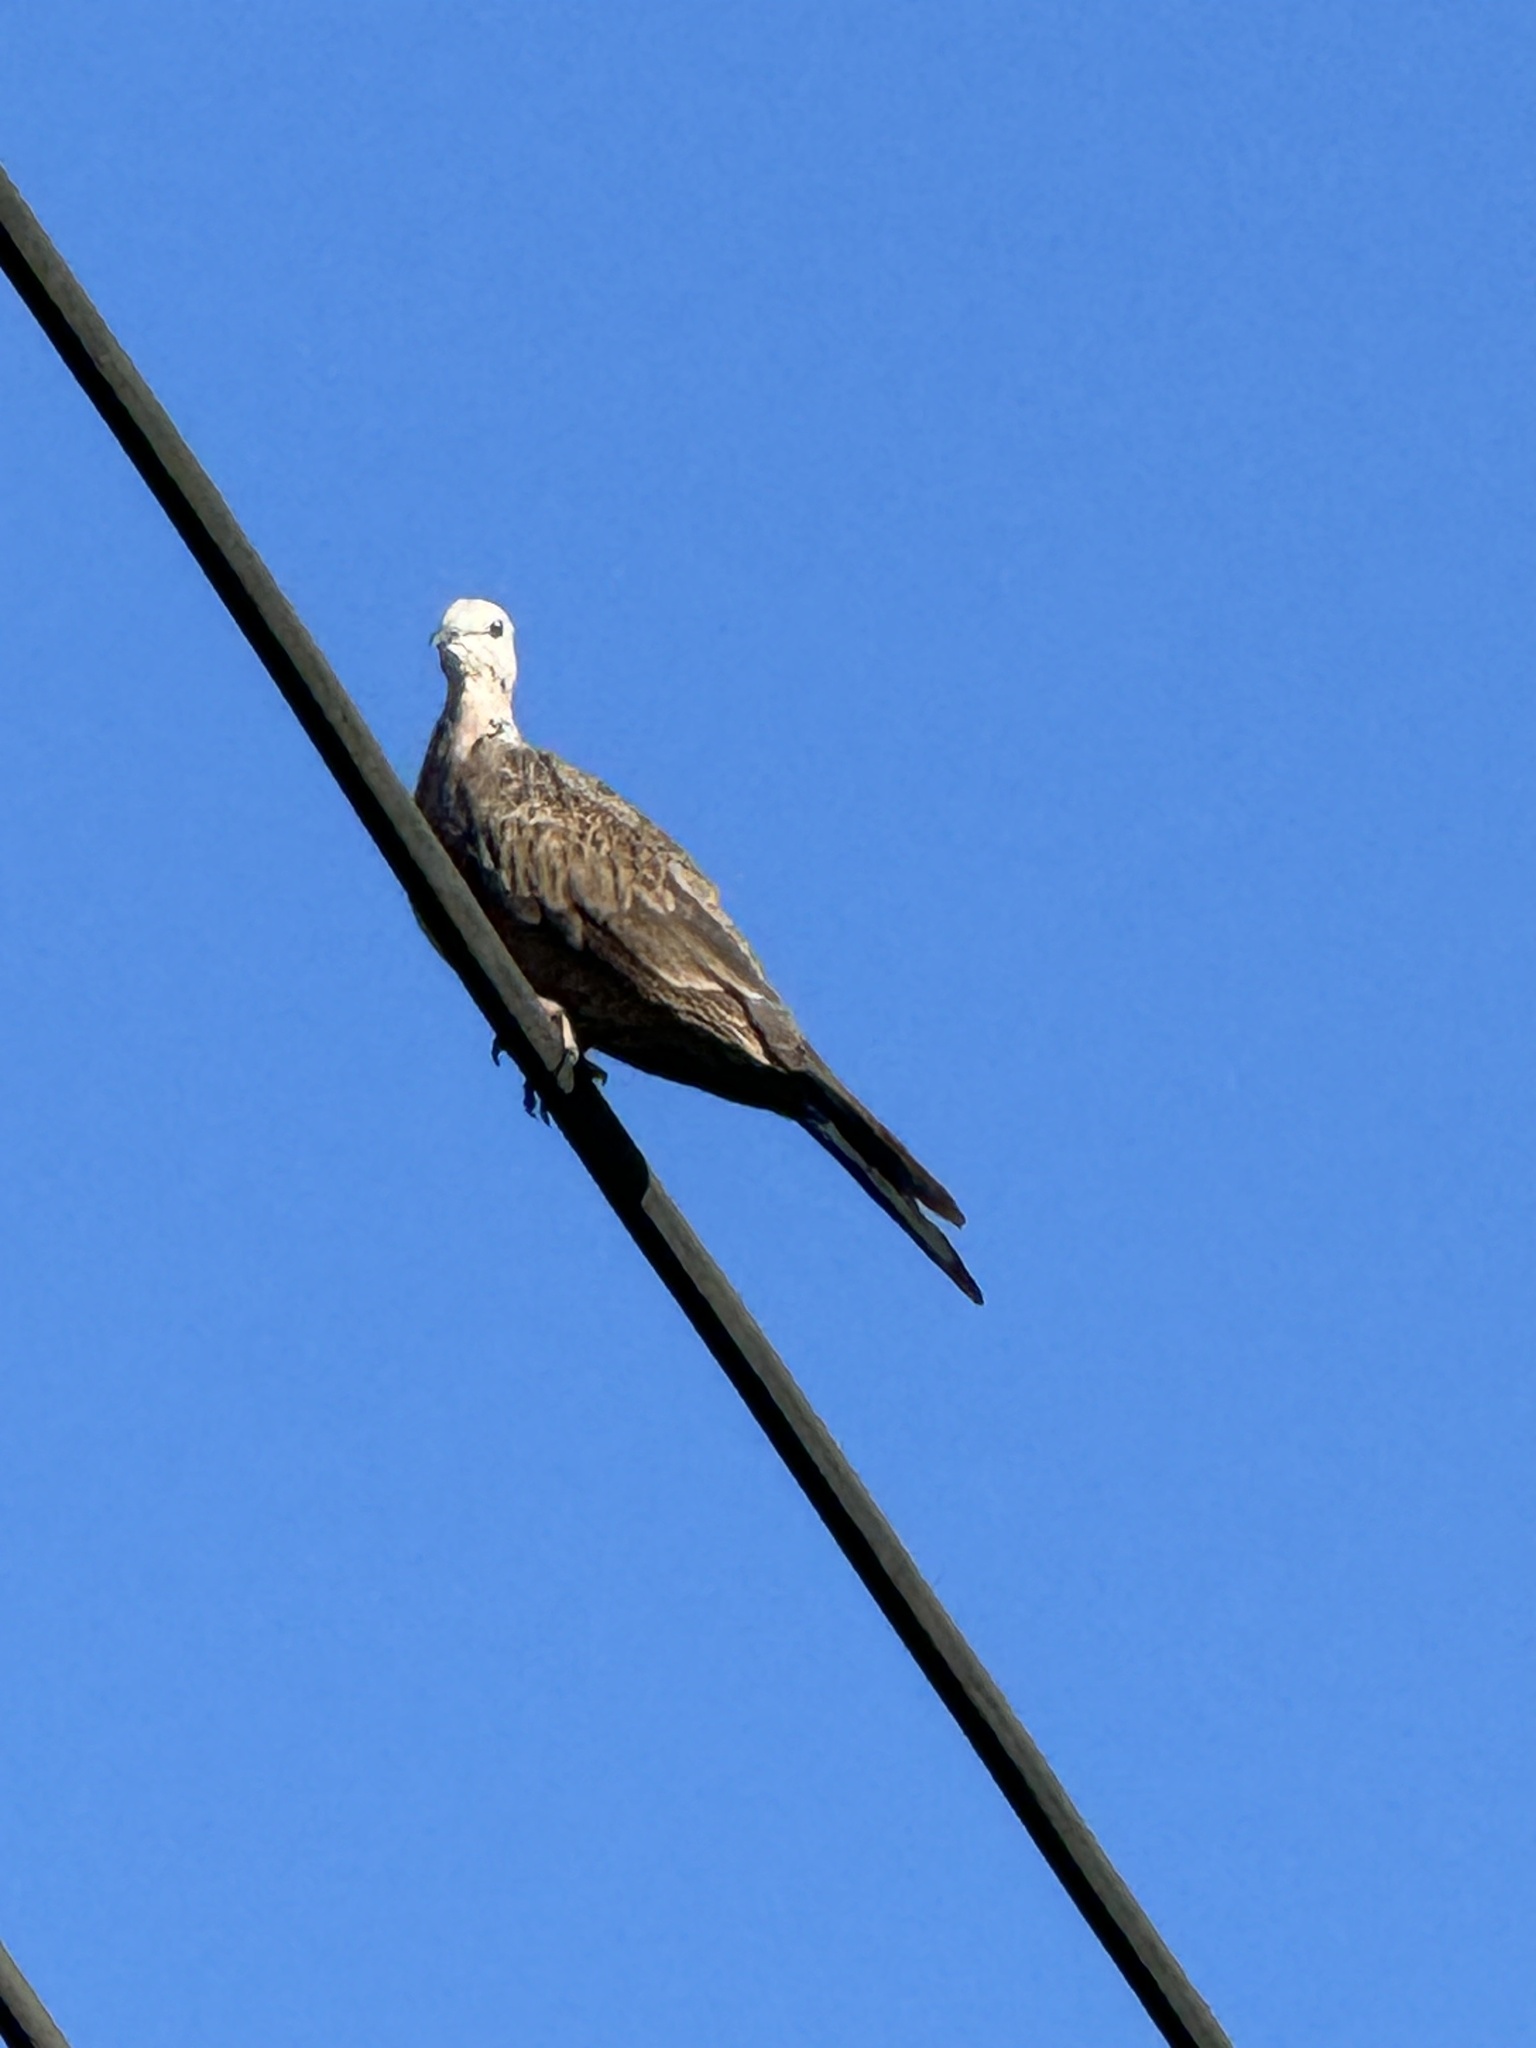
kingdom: Animalia
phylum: Chordata
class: Aves
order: Columbiformes
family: Columbidae
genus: Spilopelia
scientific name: Spilopelia chinensis
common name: Spotted dove
